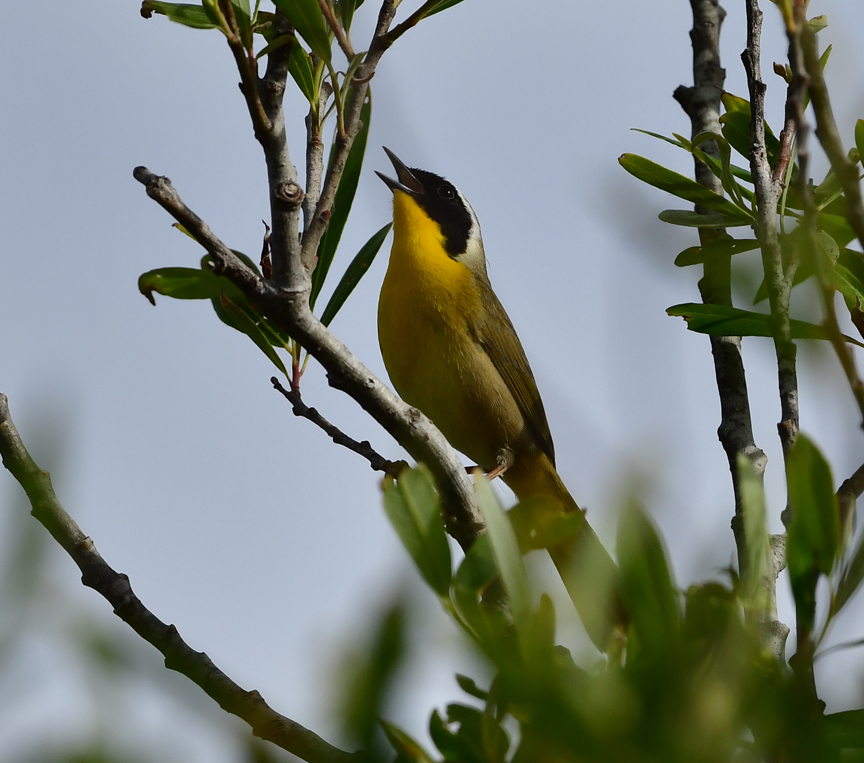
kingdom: Animalia
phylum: Chordata
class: Aves
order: Passeriformes
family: Parulidae
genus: Geothlypis
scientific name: Geothlypis trichas
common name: Common yellowthroat
